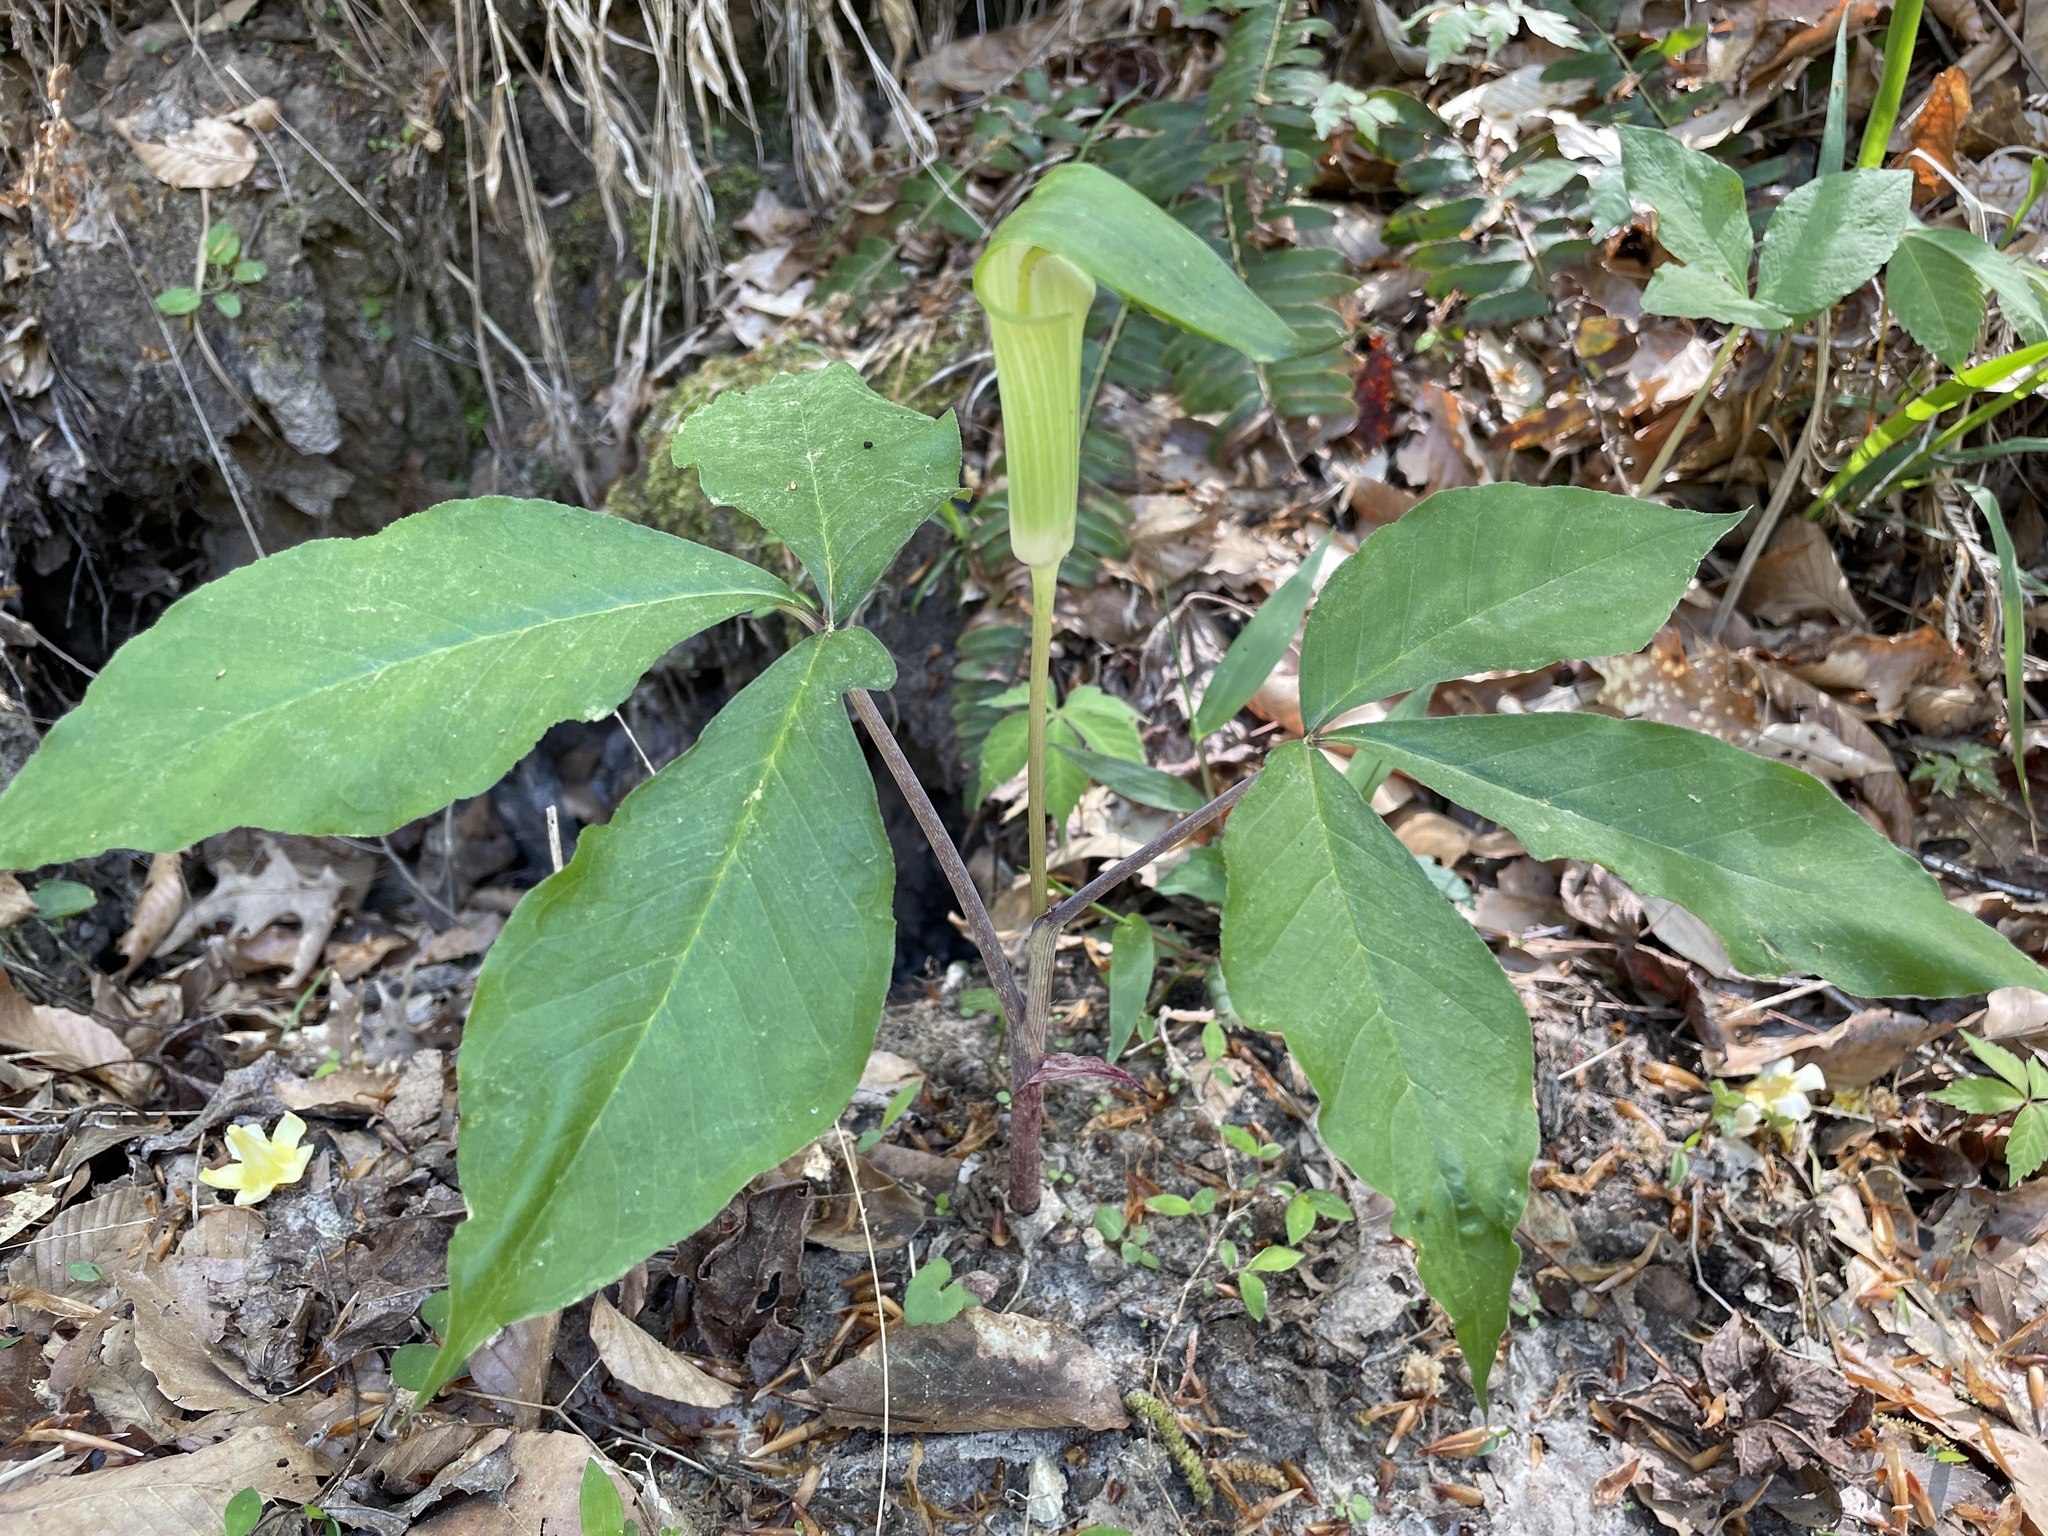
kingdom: Plantae
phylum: Tracheophyta
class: Liliopsida
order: Alismatales
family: Araceae
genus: Arisaema
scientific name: Arisaema quinatum
